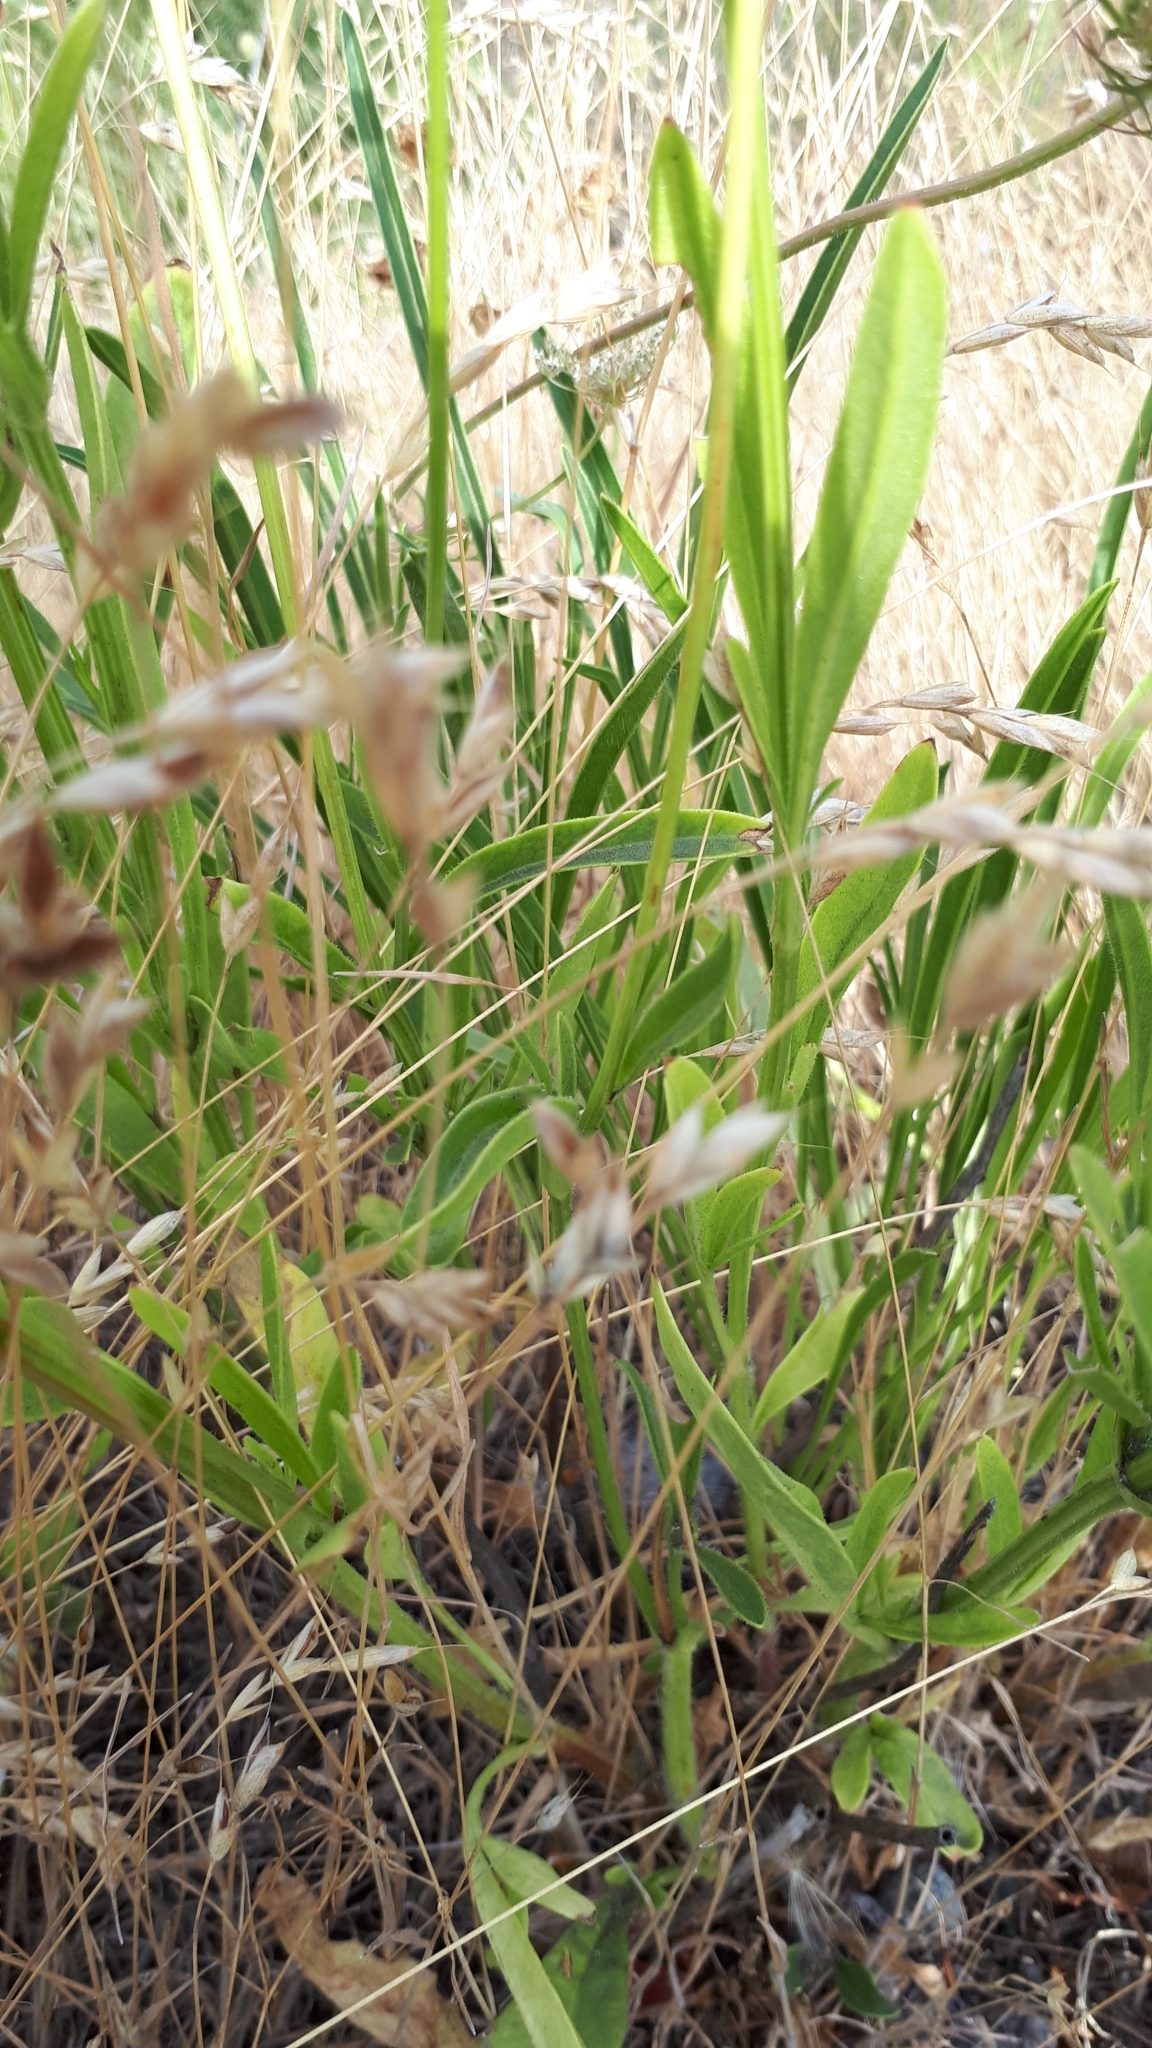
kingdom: Plantae
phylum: Tracheophyta
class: Magnoliopsida
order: Asterales
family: Asteraceae
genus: Coreopsis
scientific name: Coreopsis lanceolata
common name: Garden coreopsis
